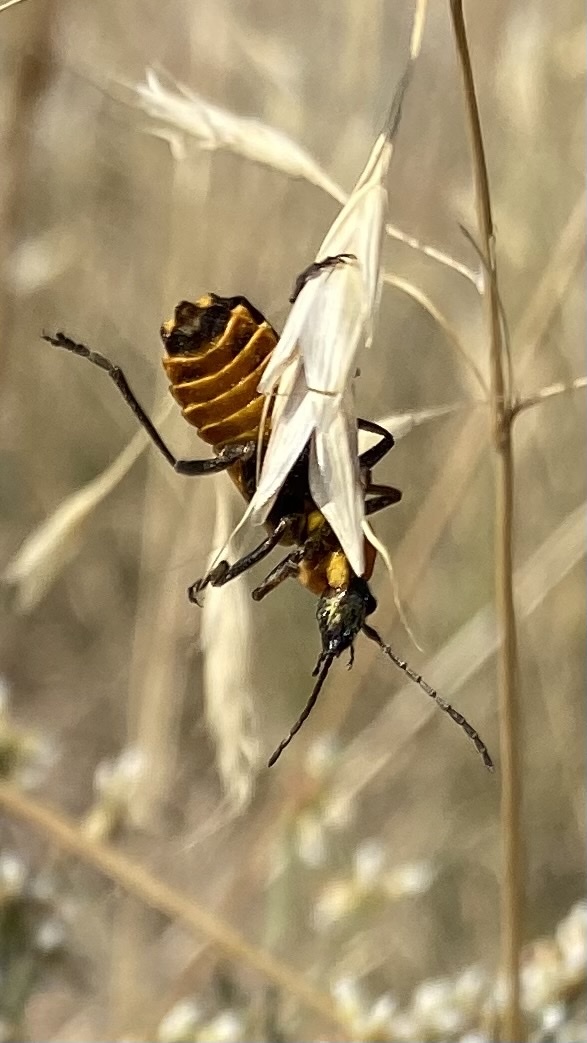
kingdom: Animalia
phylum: Arthropoda
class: Insecta
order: Coleoptera
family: Cantharidae
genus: Chauliognathus
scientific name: Chauliognathus basalis
